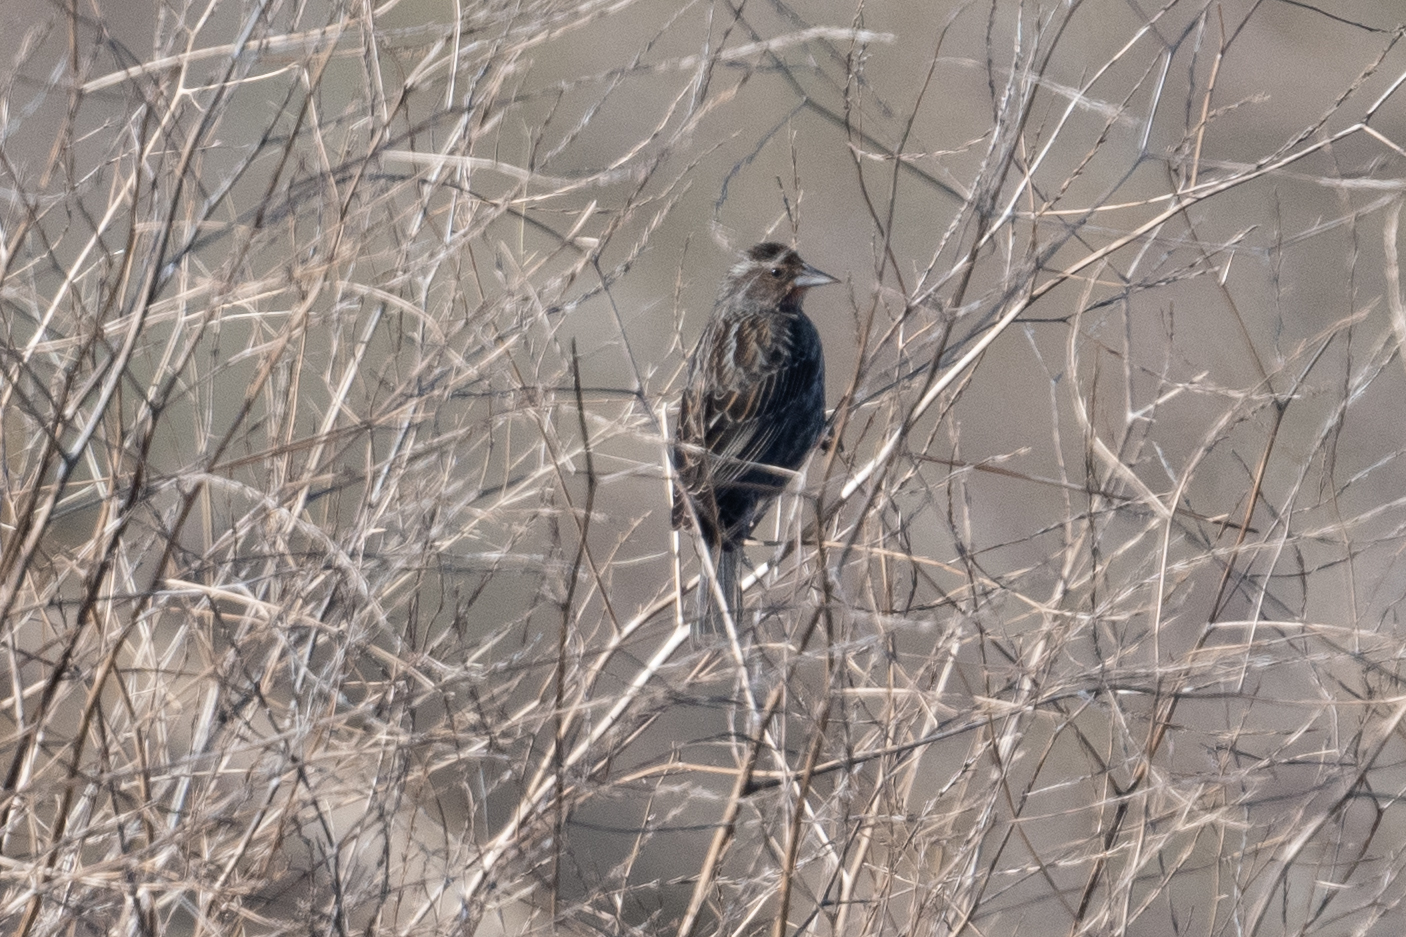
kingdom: Animalia
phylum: Chordata
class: Aves
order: Passeriformes
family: Icteridae
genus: Agelaius
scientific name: Agelaius phoeniceus
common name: Red-winged blackbird
